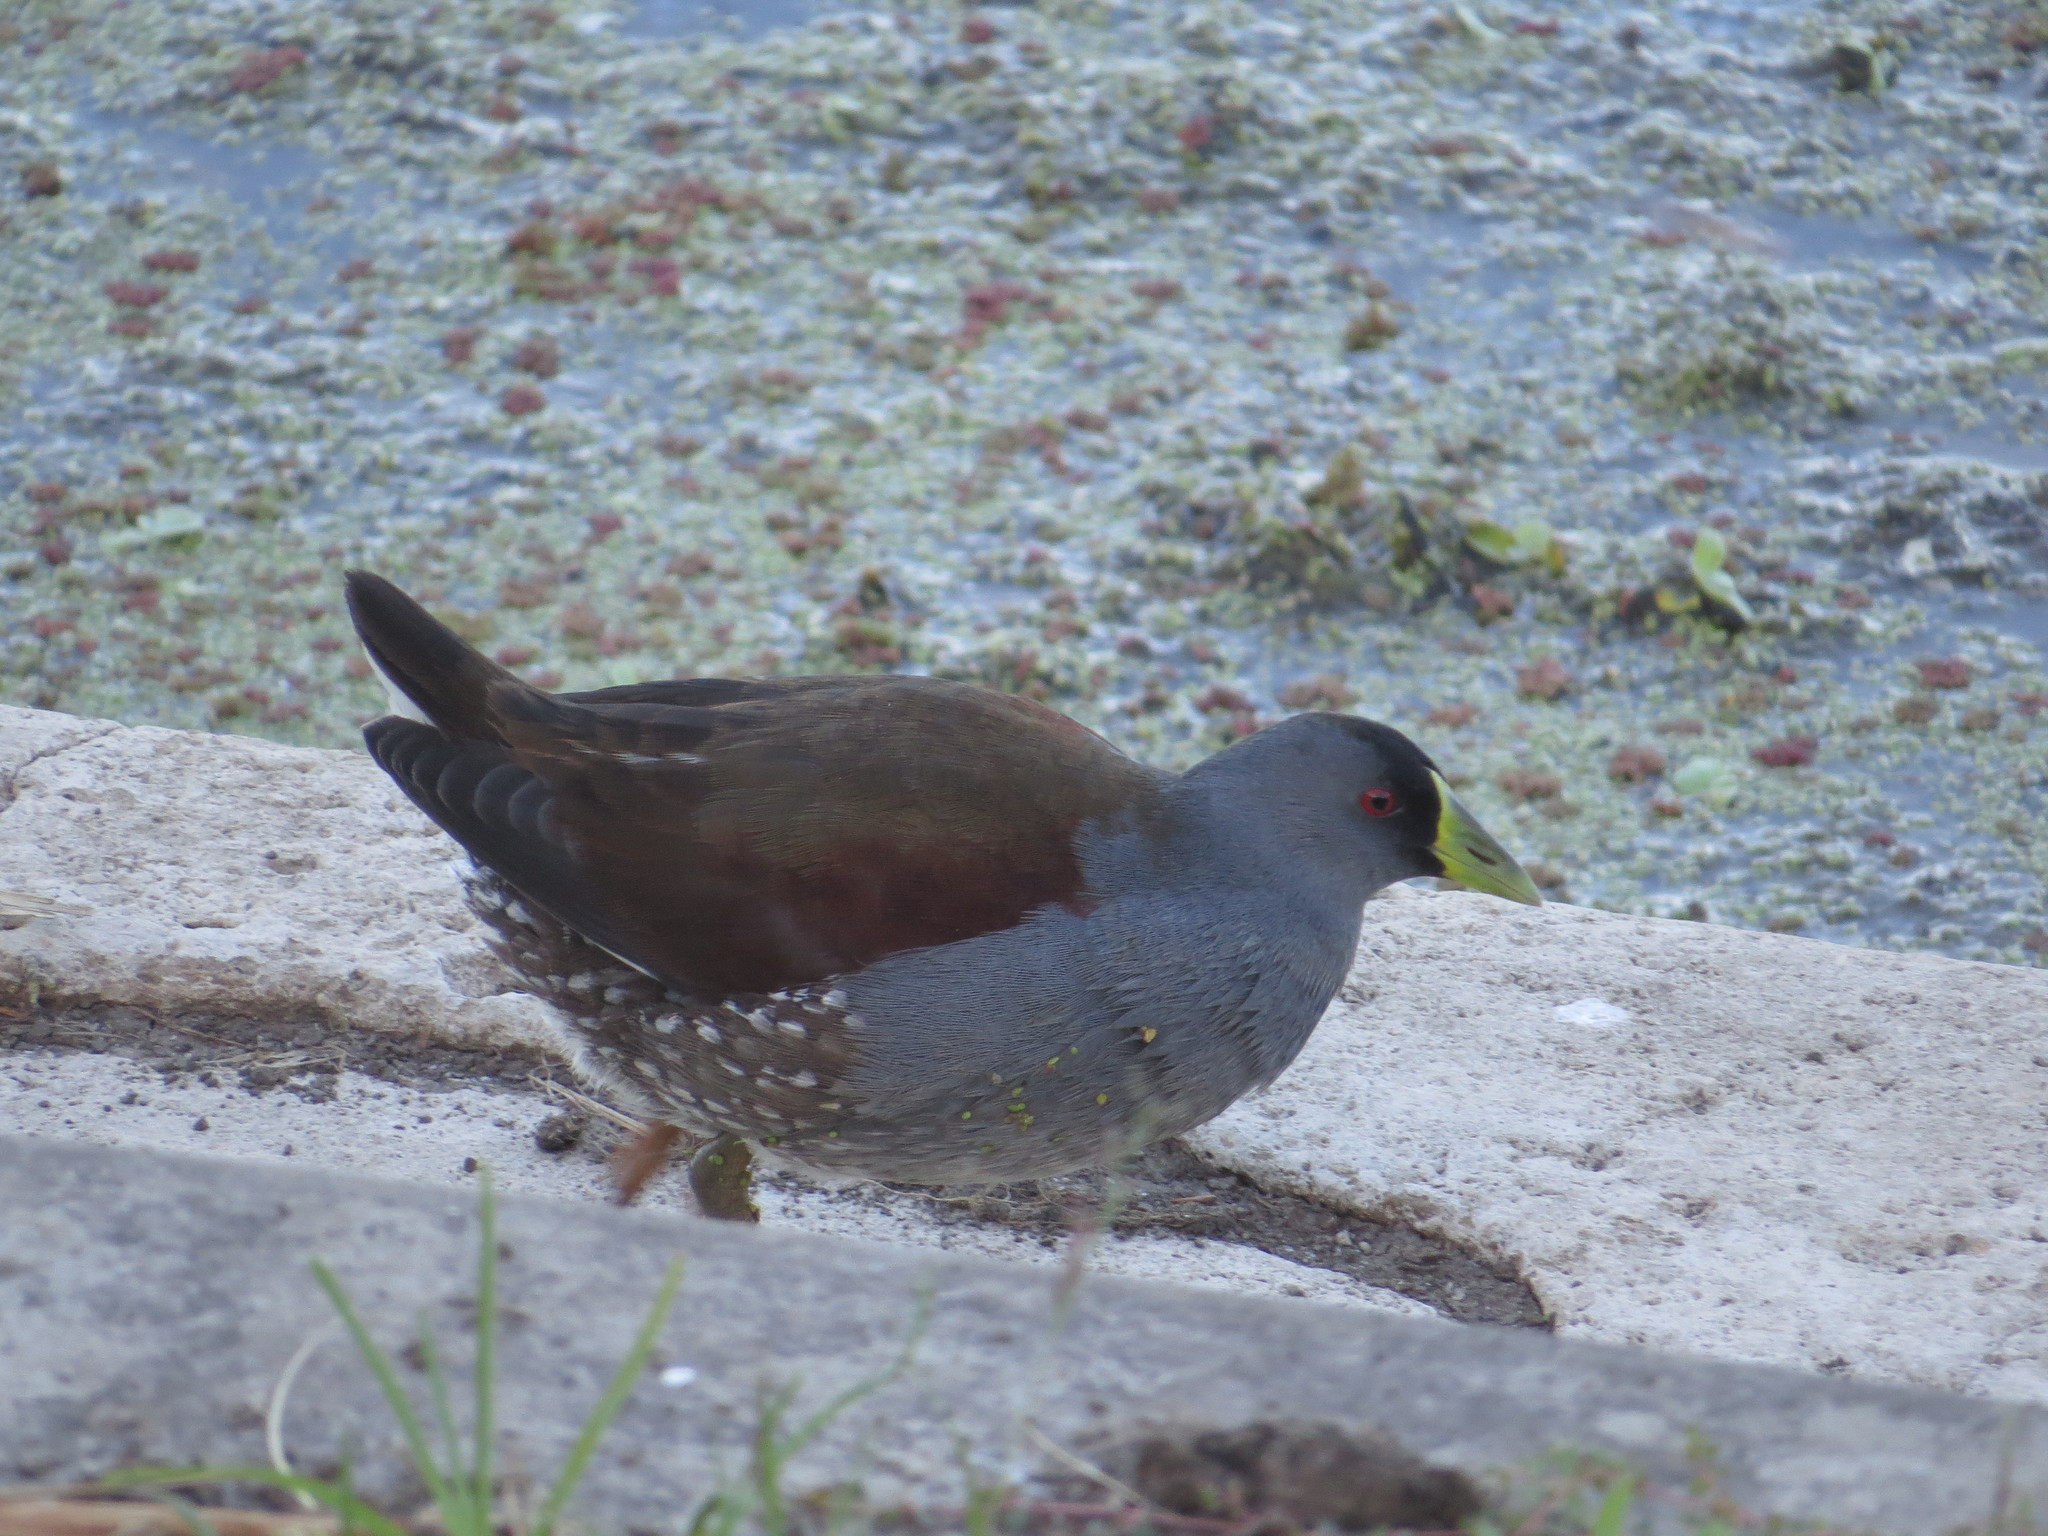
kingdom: Animalia
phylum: Chordata
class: Aves
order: Gruiformes
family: Rallidae
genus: Gallinula
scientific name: Gallinula melanops
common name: Spot-flanked gallinule
